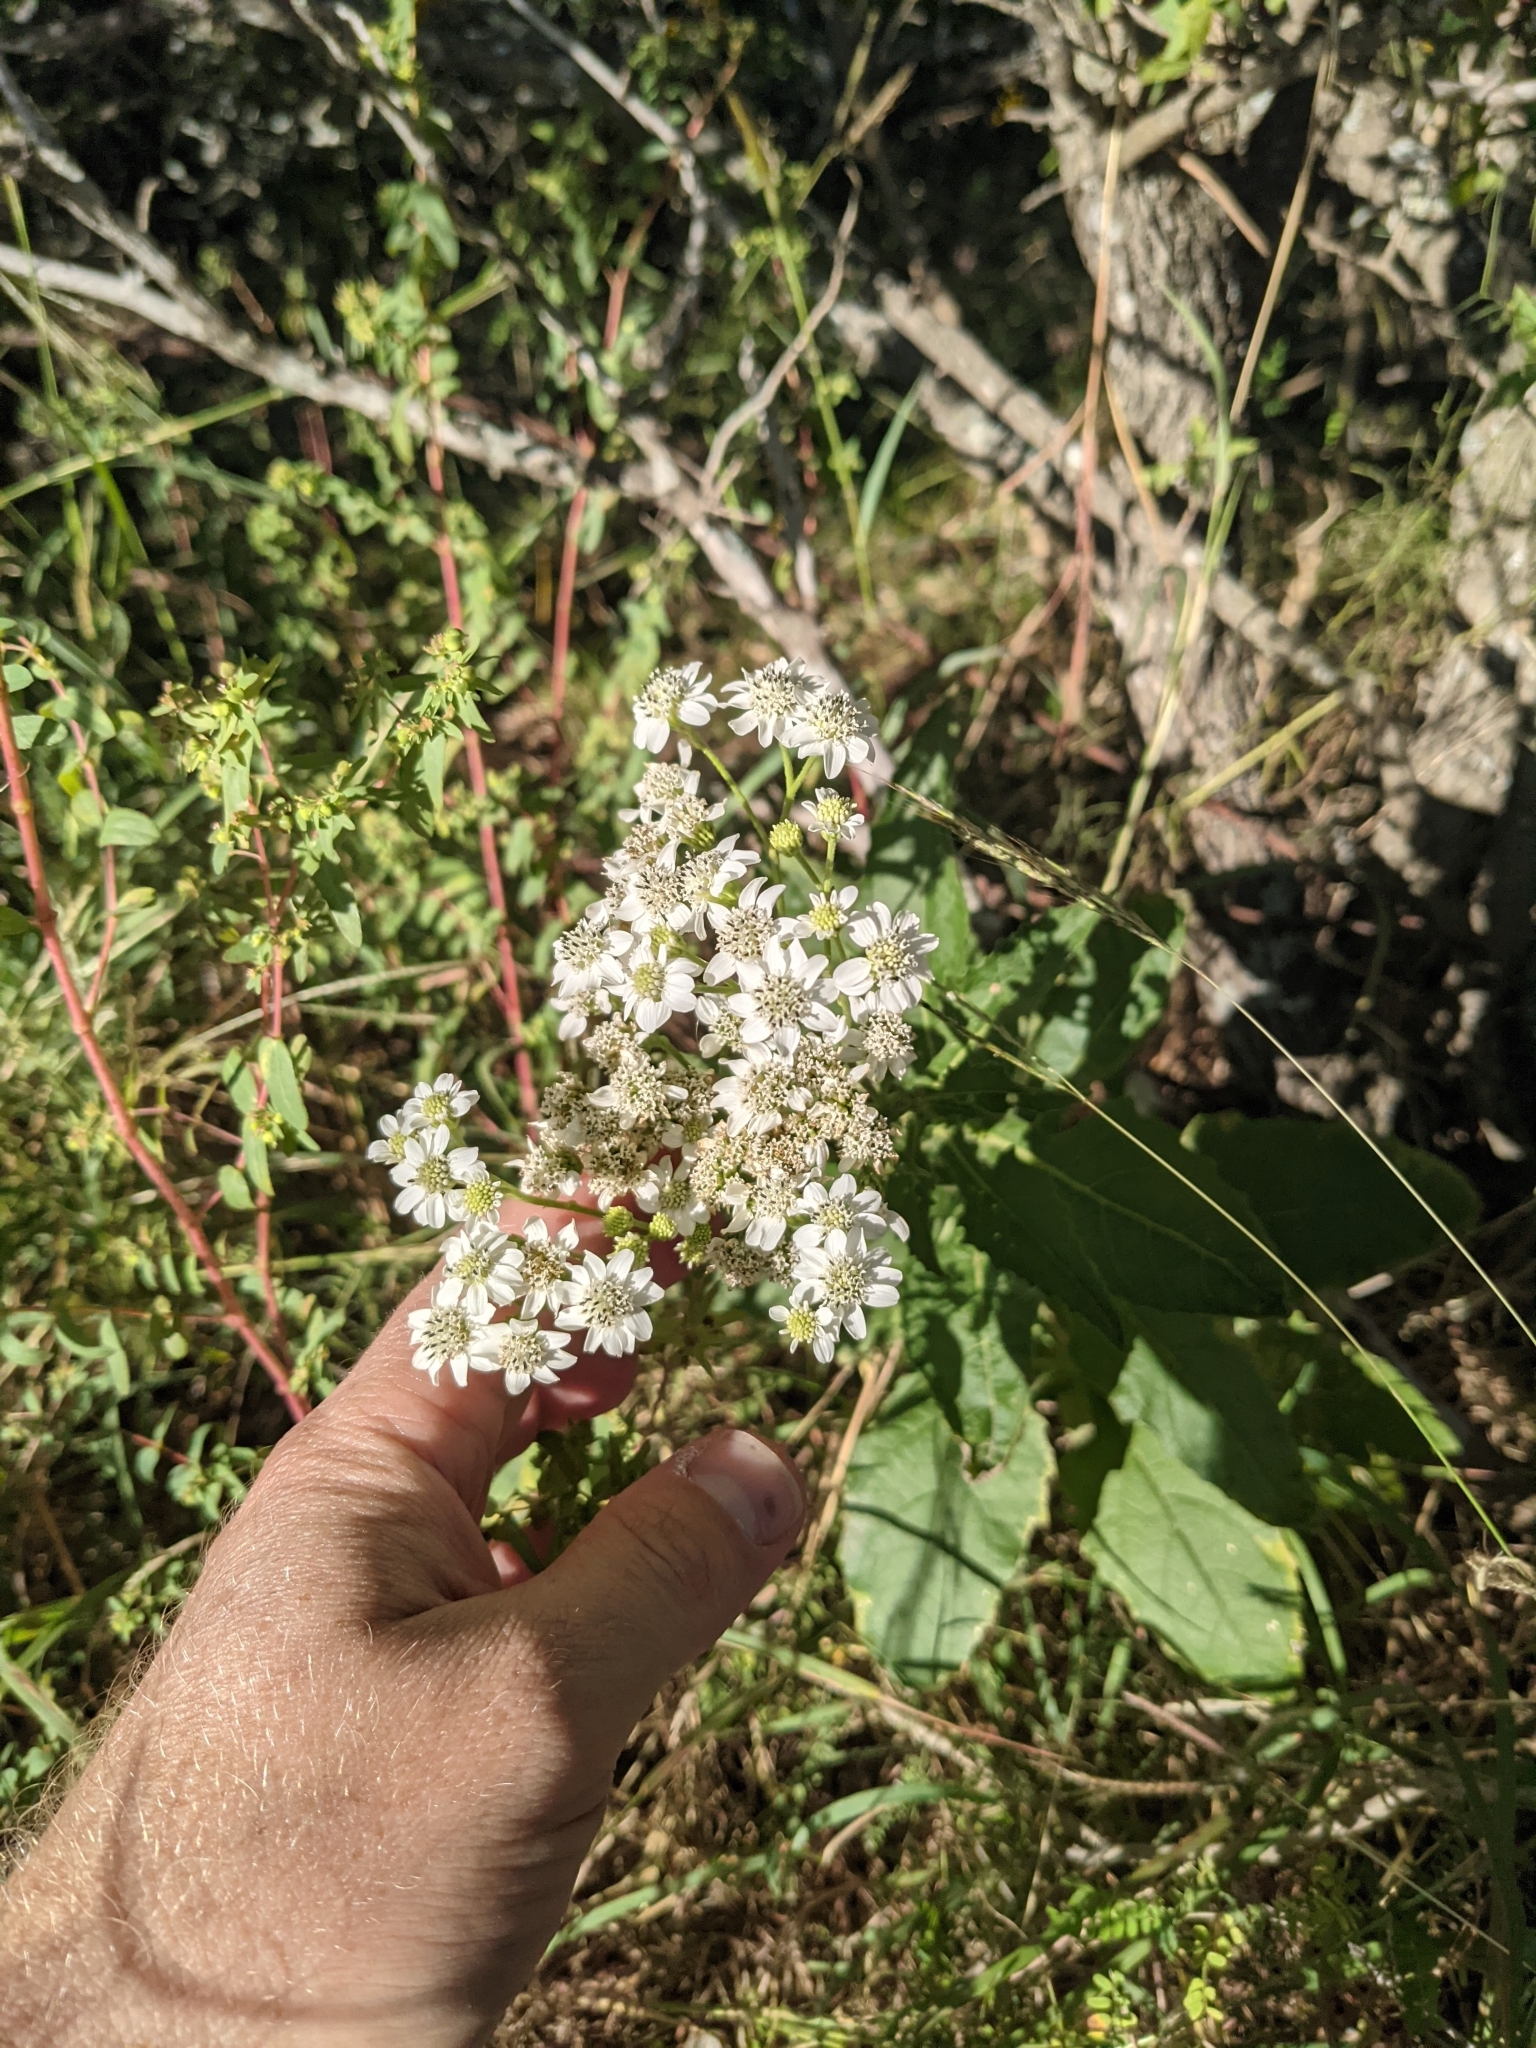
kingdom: Plantae
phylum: Tracheophyta
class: Magnoliopsida
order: Asterales
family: Asteraceae
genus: Verbesina
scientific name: Verbesina microptera
